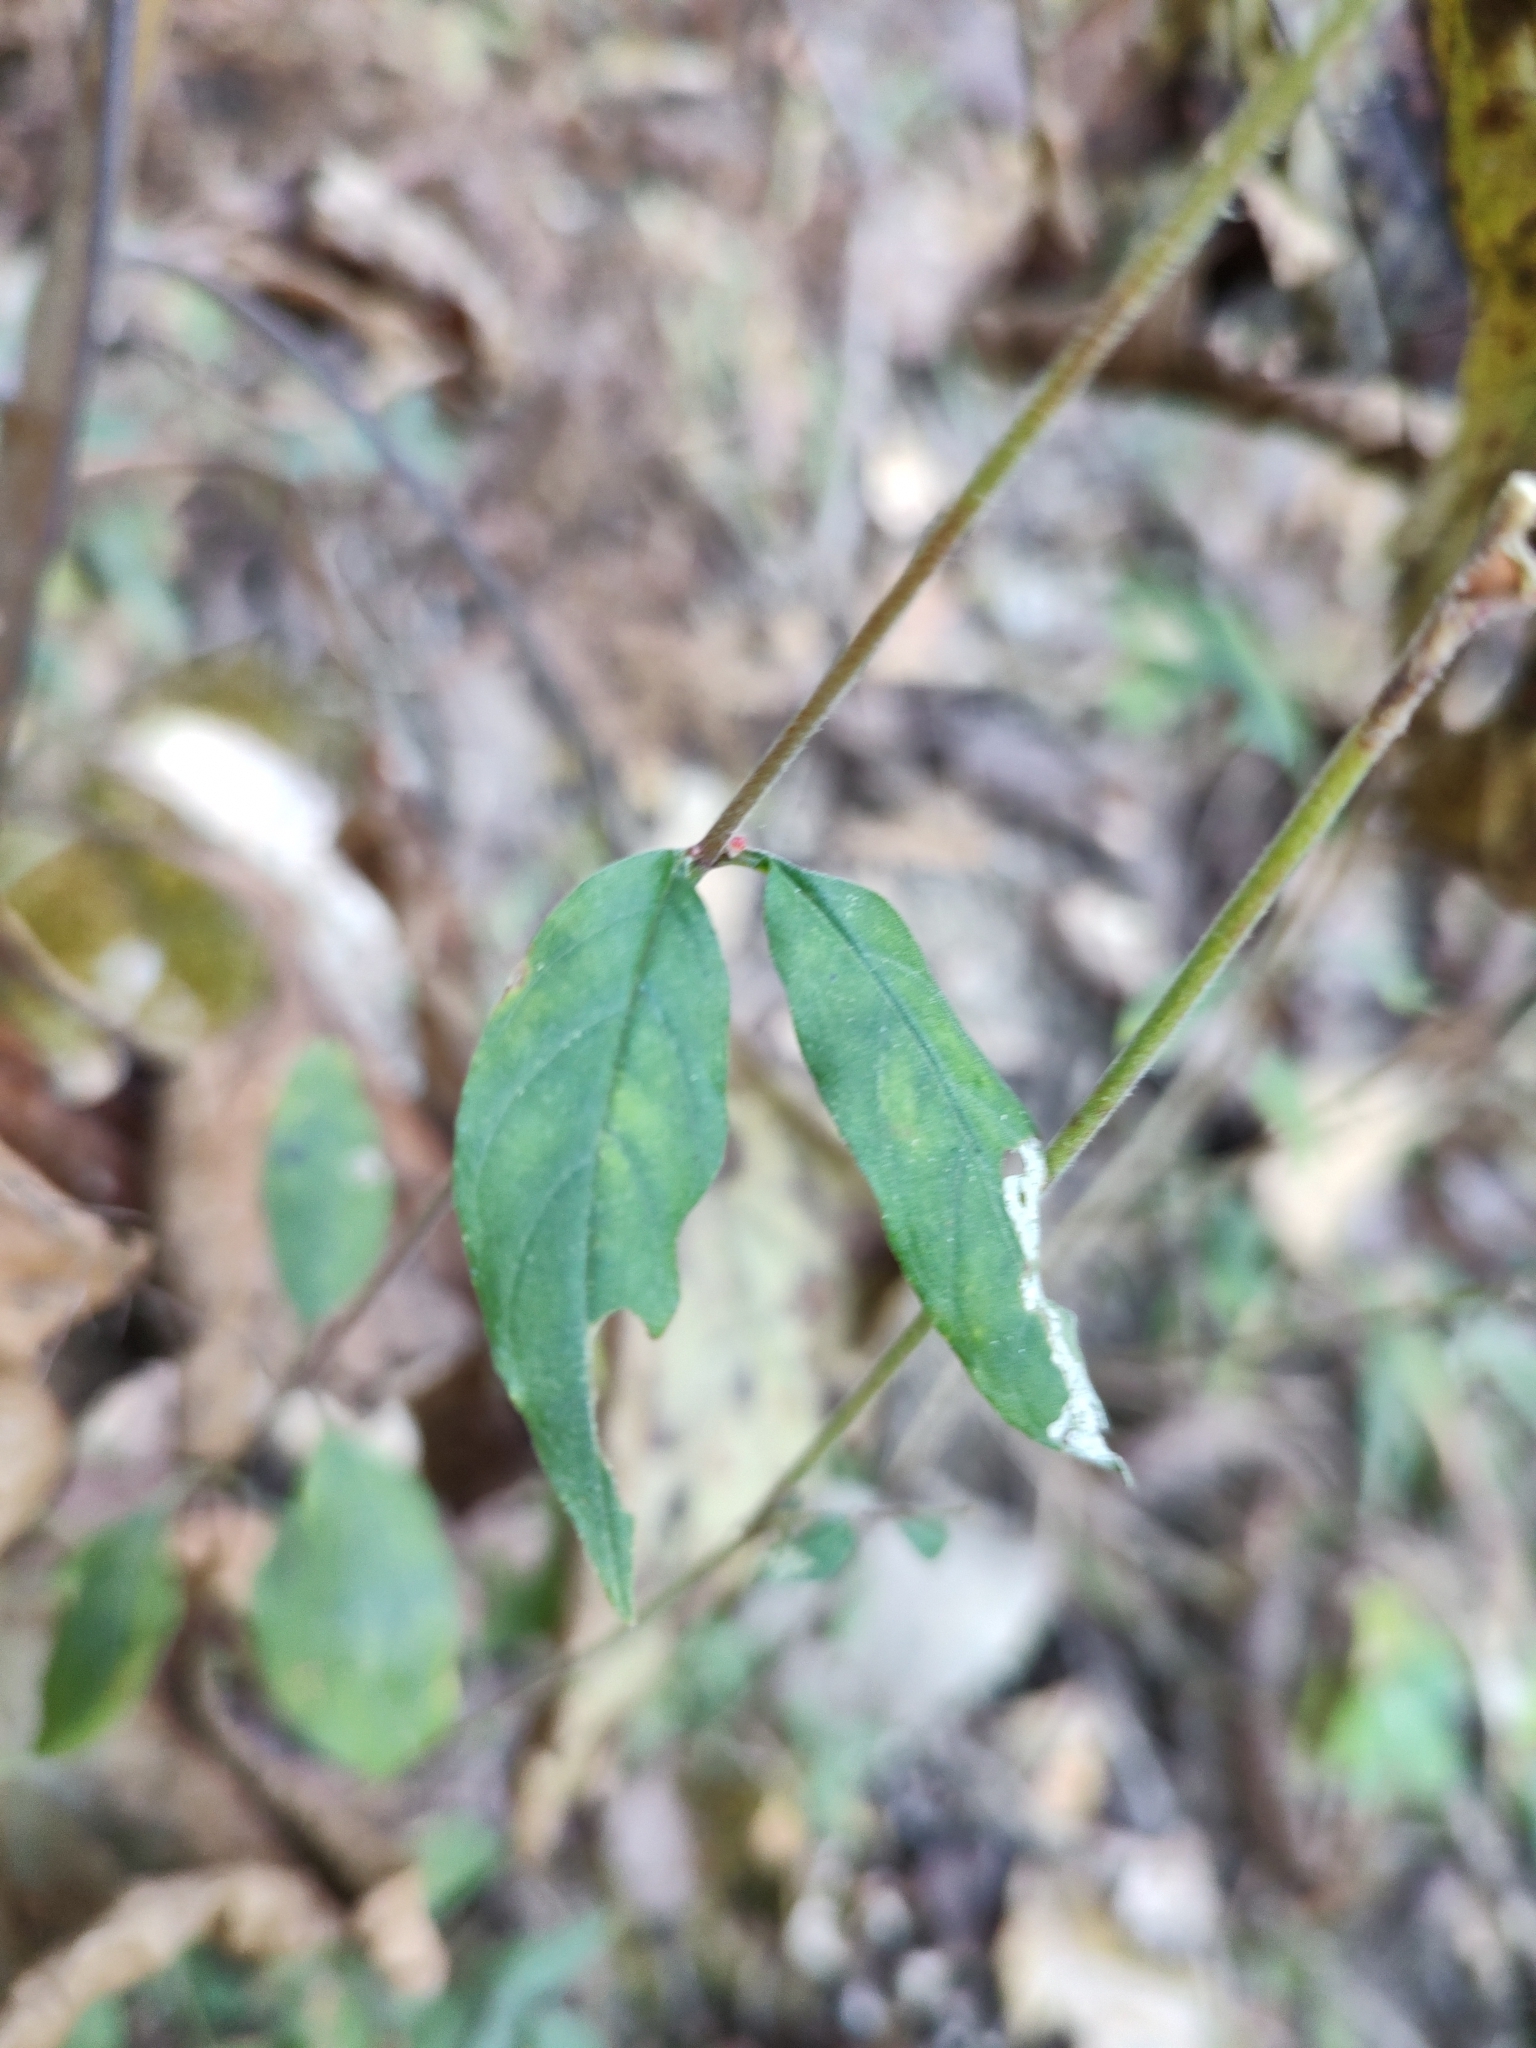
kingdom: Plantae
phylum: Tracheophyta
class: Magnoliopsida
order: Myrtales
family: Lythraceae
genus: Cuphea
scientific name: Cuphea hookeriana
